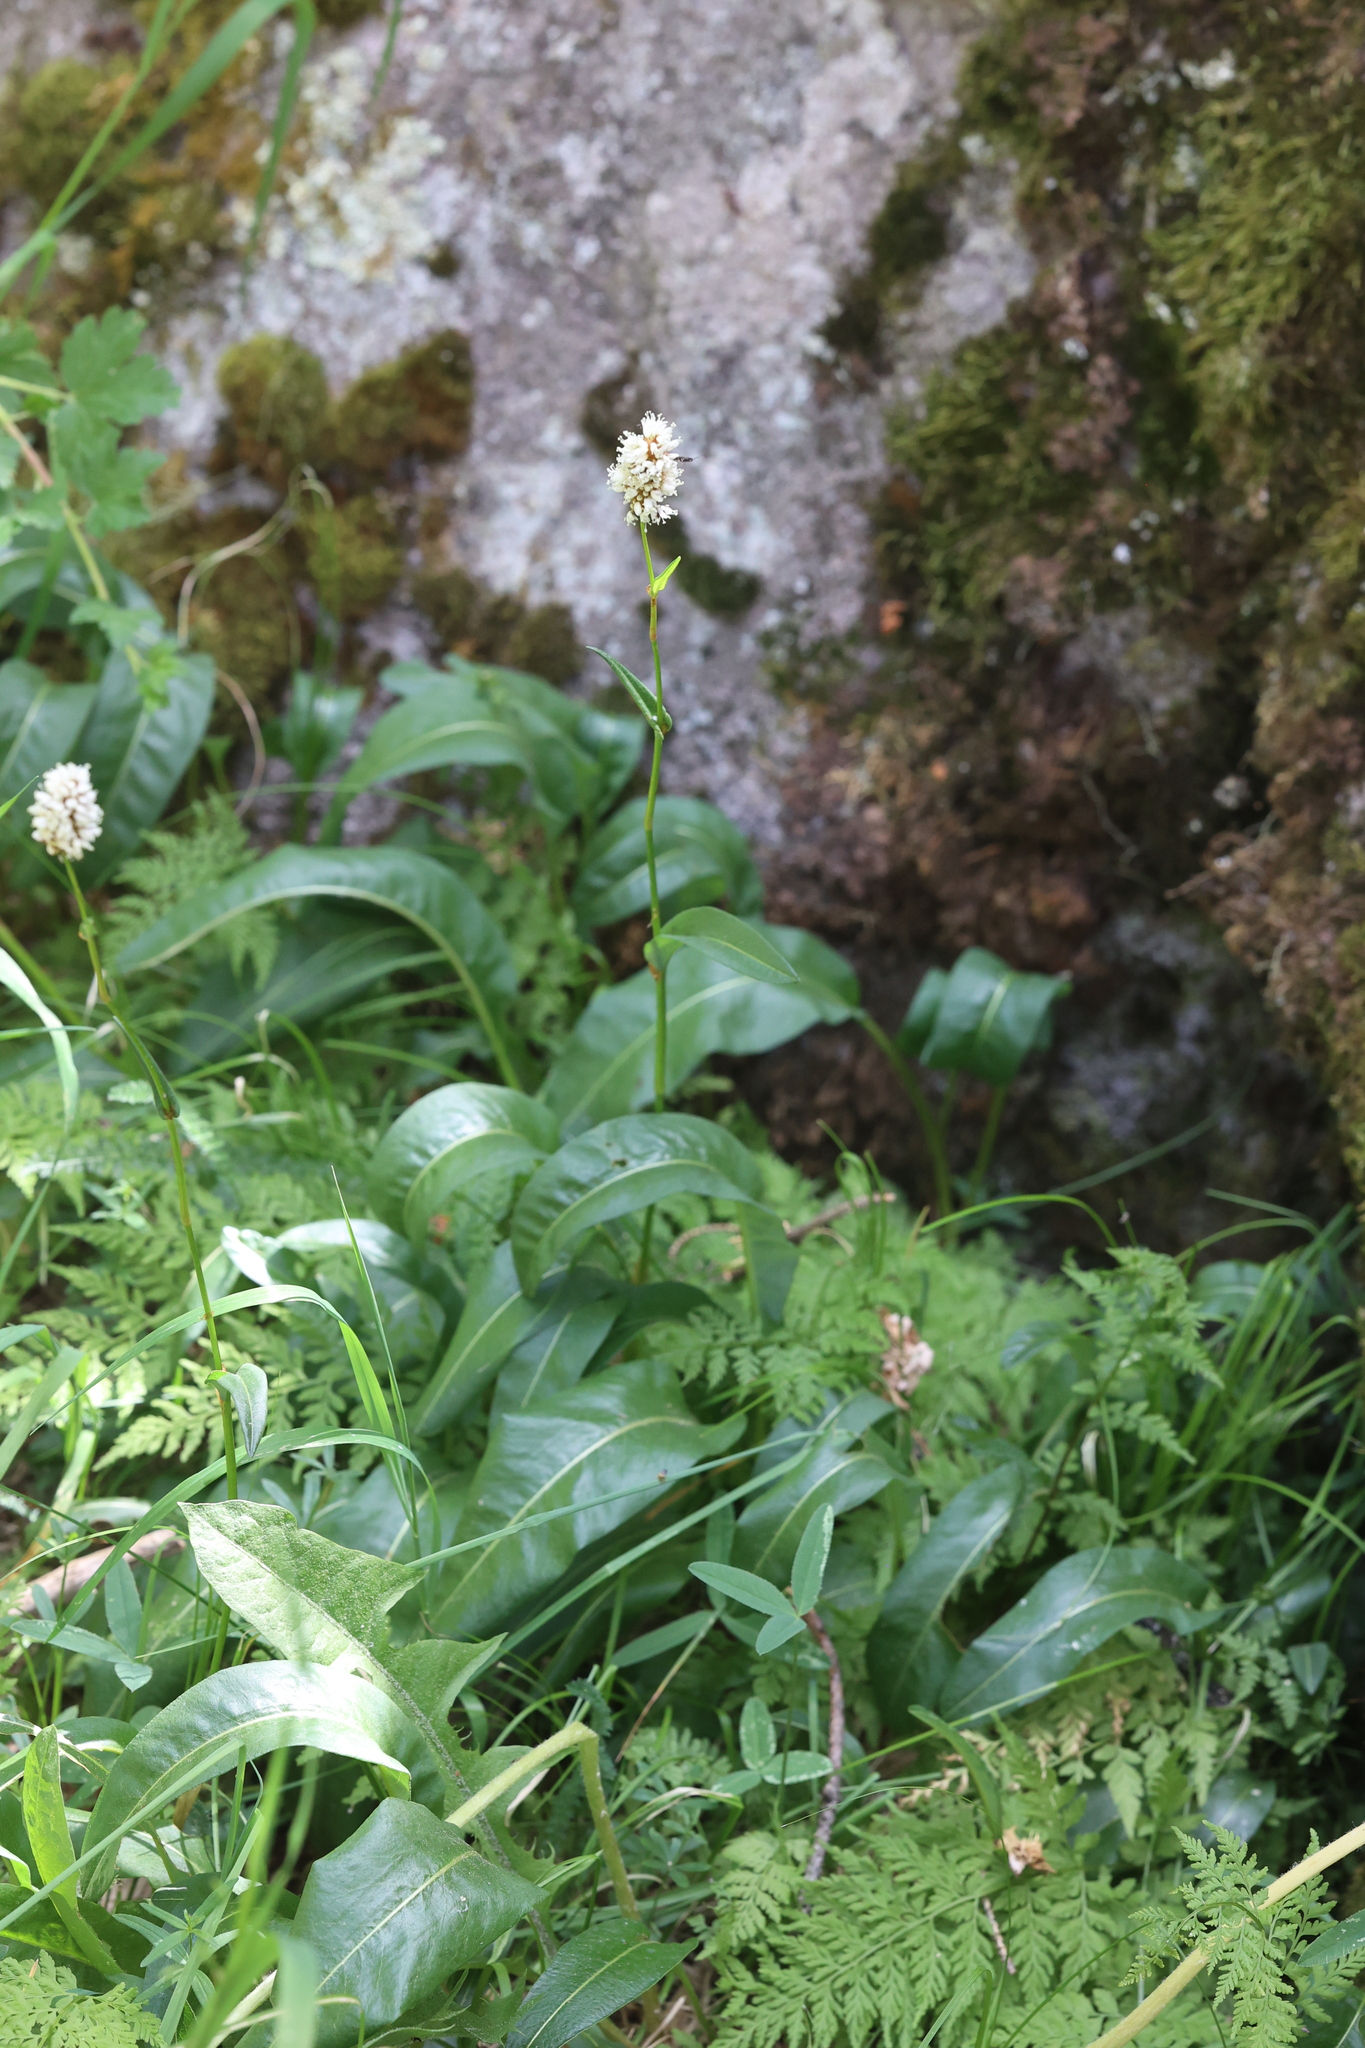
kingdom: Plantae
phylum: Tracheophyta
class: Magnoliopsida
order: Caryophyllales
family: Polygonaceae
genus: Bistorta
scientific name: Bistorta bistortoides
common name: American bistort
